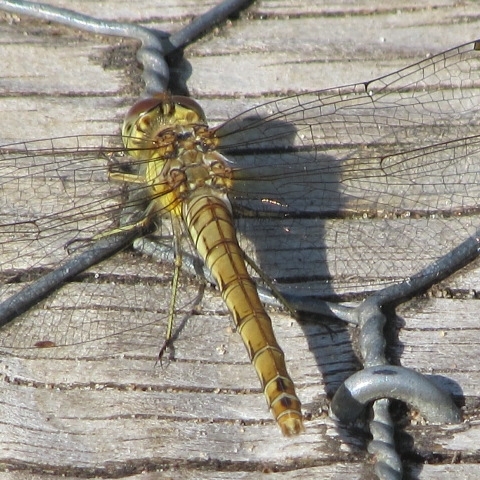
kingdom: Animalia
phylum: Arthropoda
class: Insecta
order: Odonata
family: Libellulidae
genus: Sympetrum
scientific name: Sympetrum striolatum
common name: Common darter
